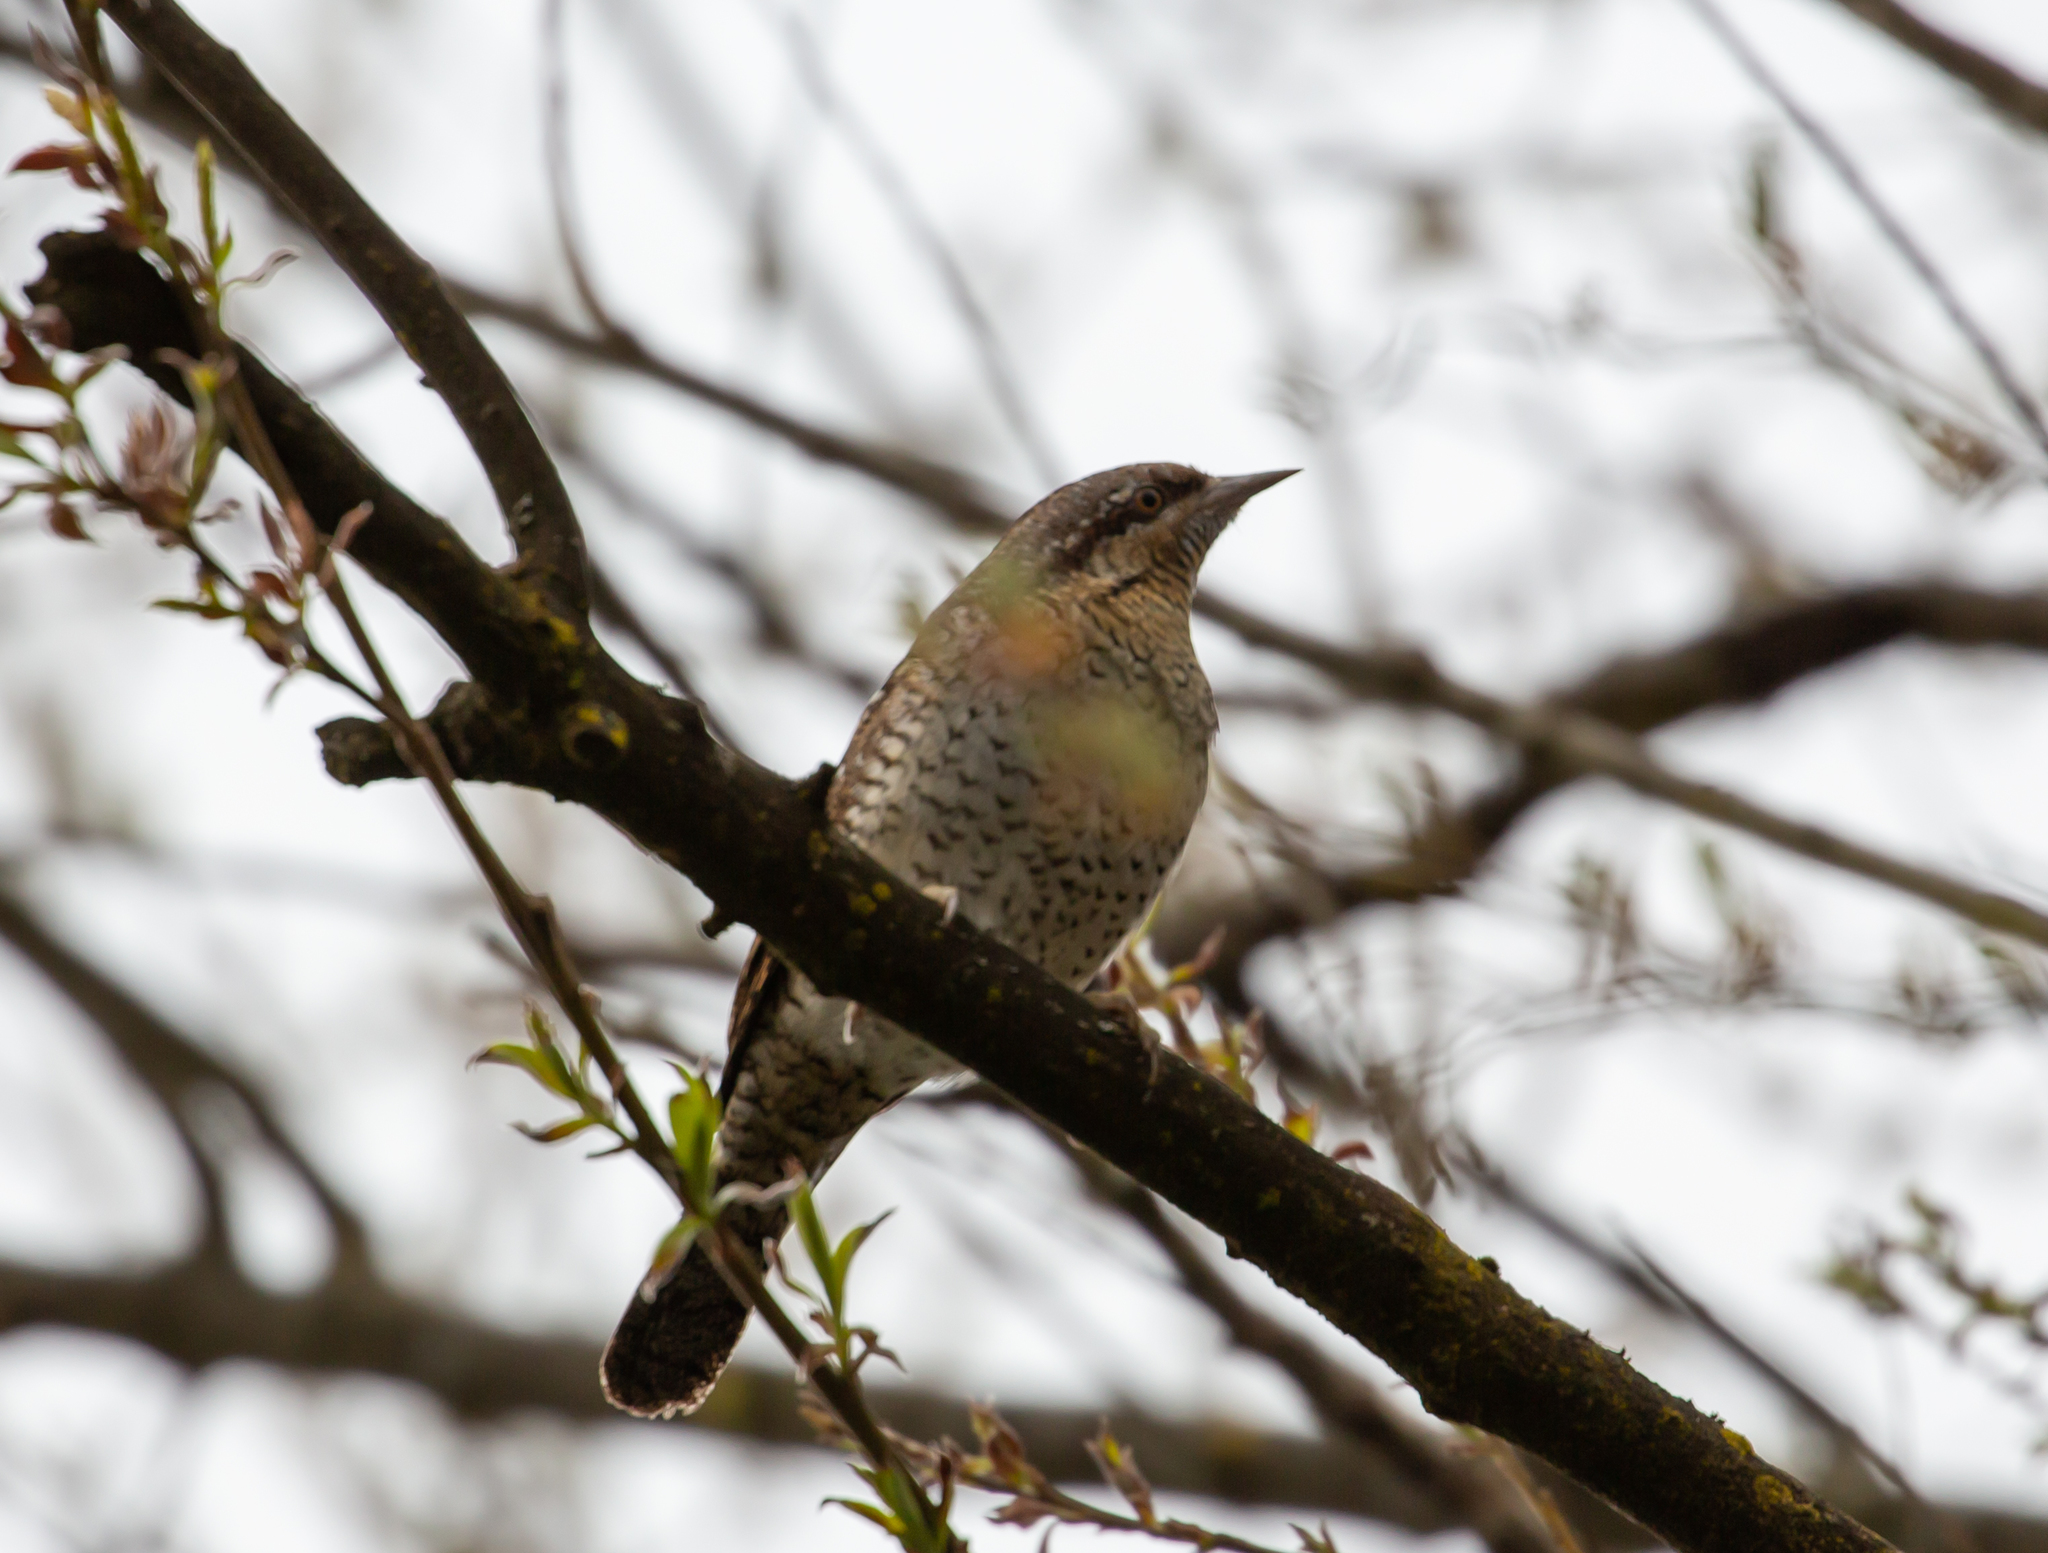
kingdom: Animalia
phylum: Chordata
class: Aves
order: Piciformes
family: Picidae
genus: Jynx
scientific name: Jynx torquilla
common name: Eurasian wryneck
